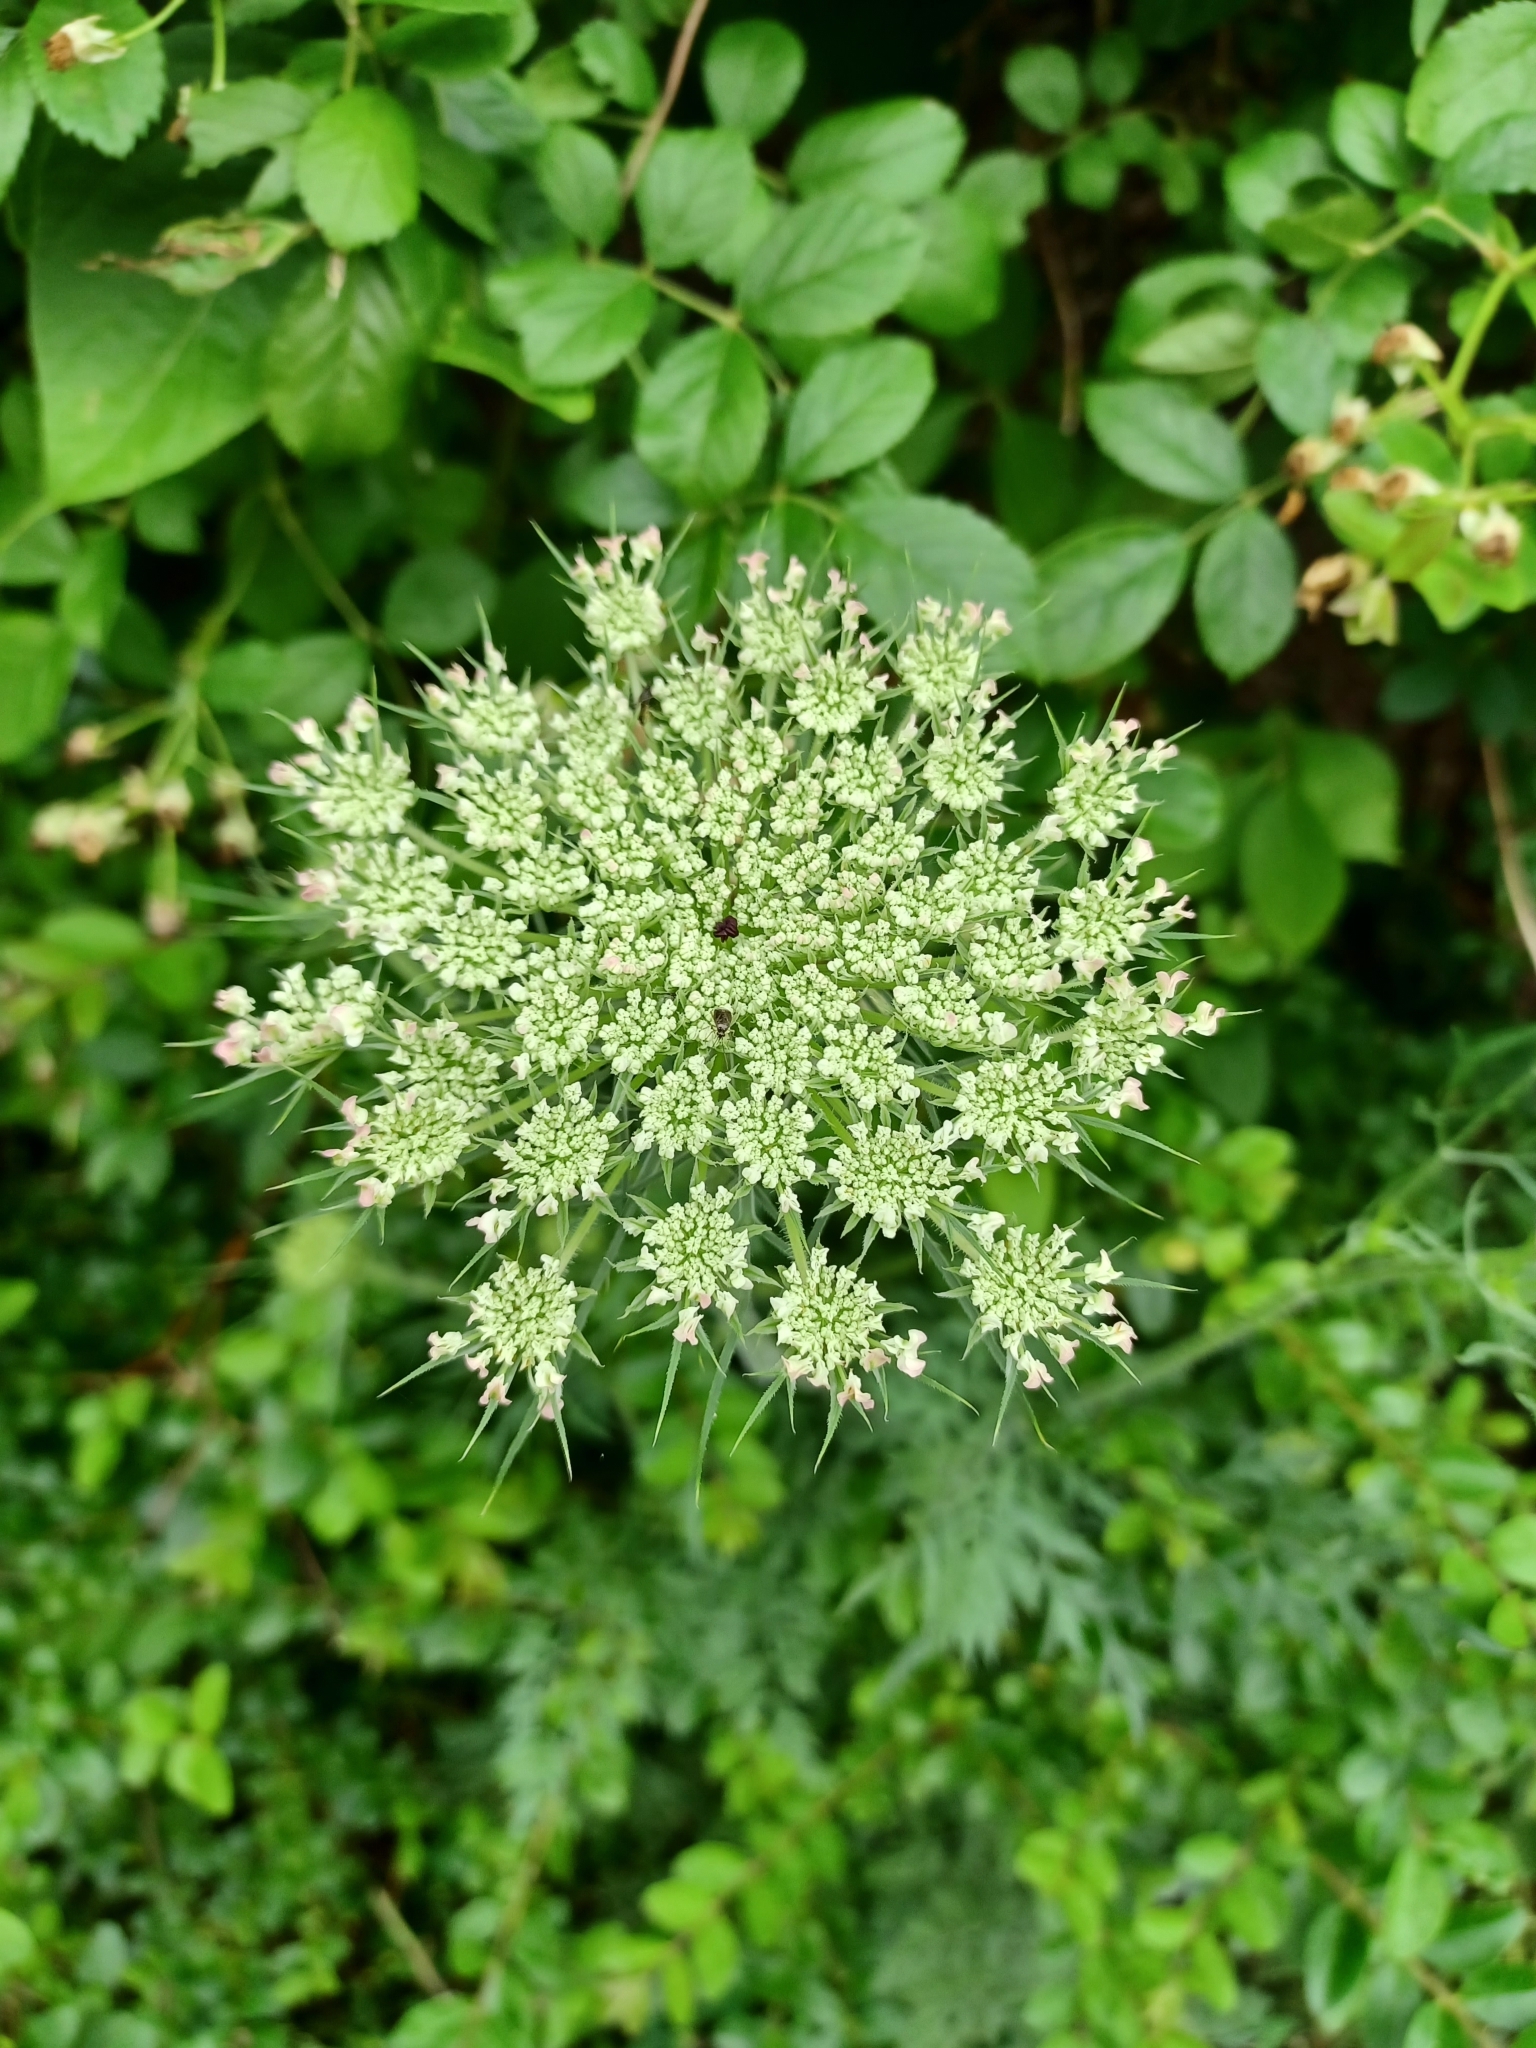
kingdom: Plantae
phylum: Tracheophyta
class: Magnoliopsida
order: Apiales
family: Apiaceae
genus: Daucus
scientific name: Daucus carota
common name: Wild carrot
